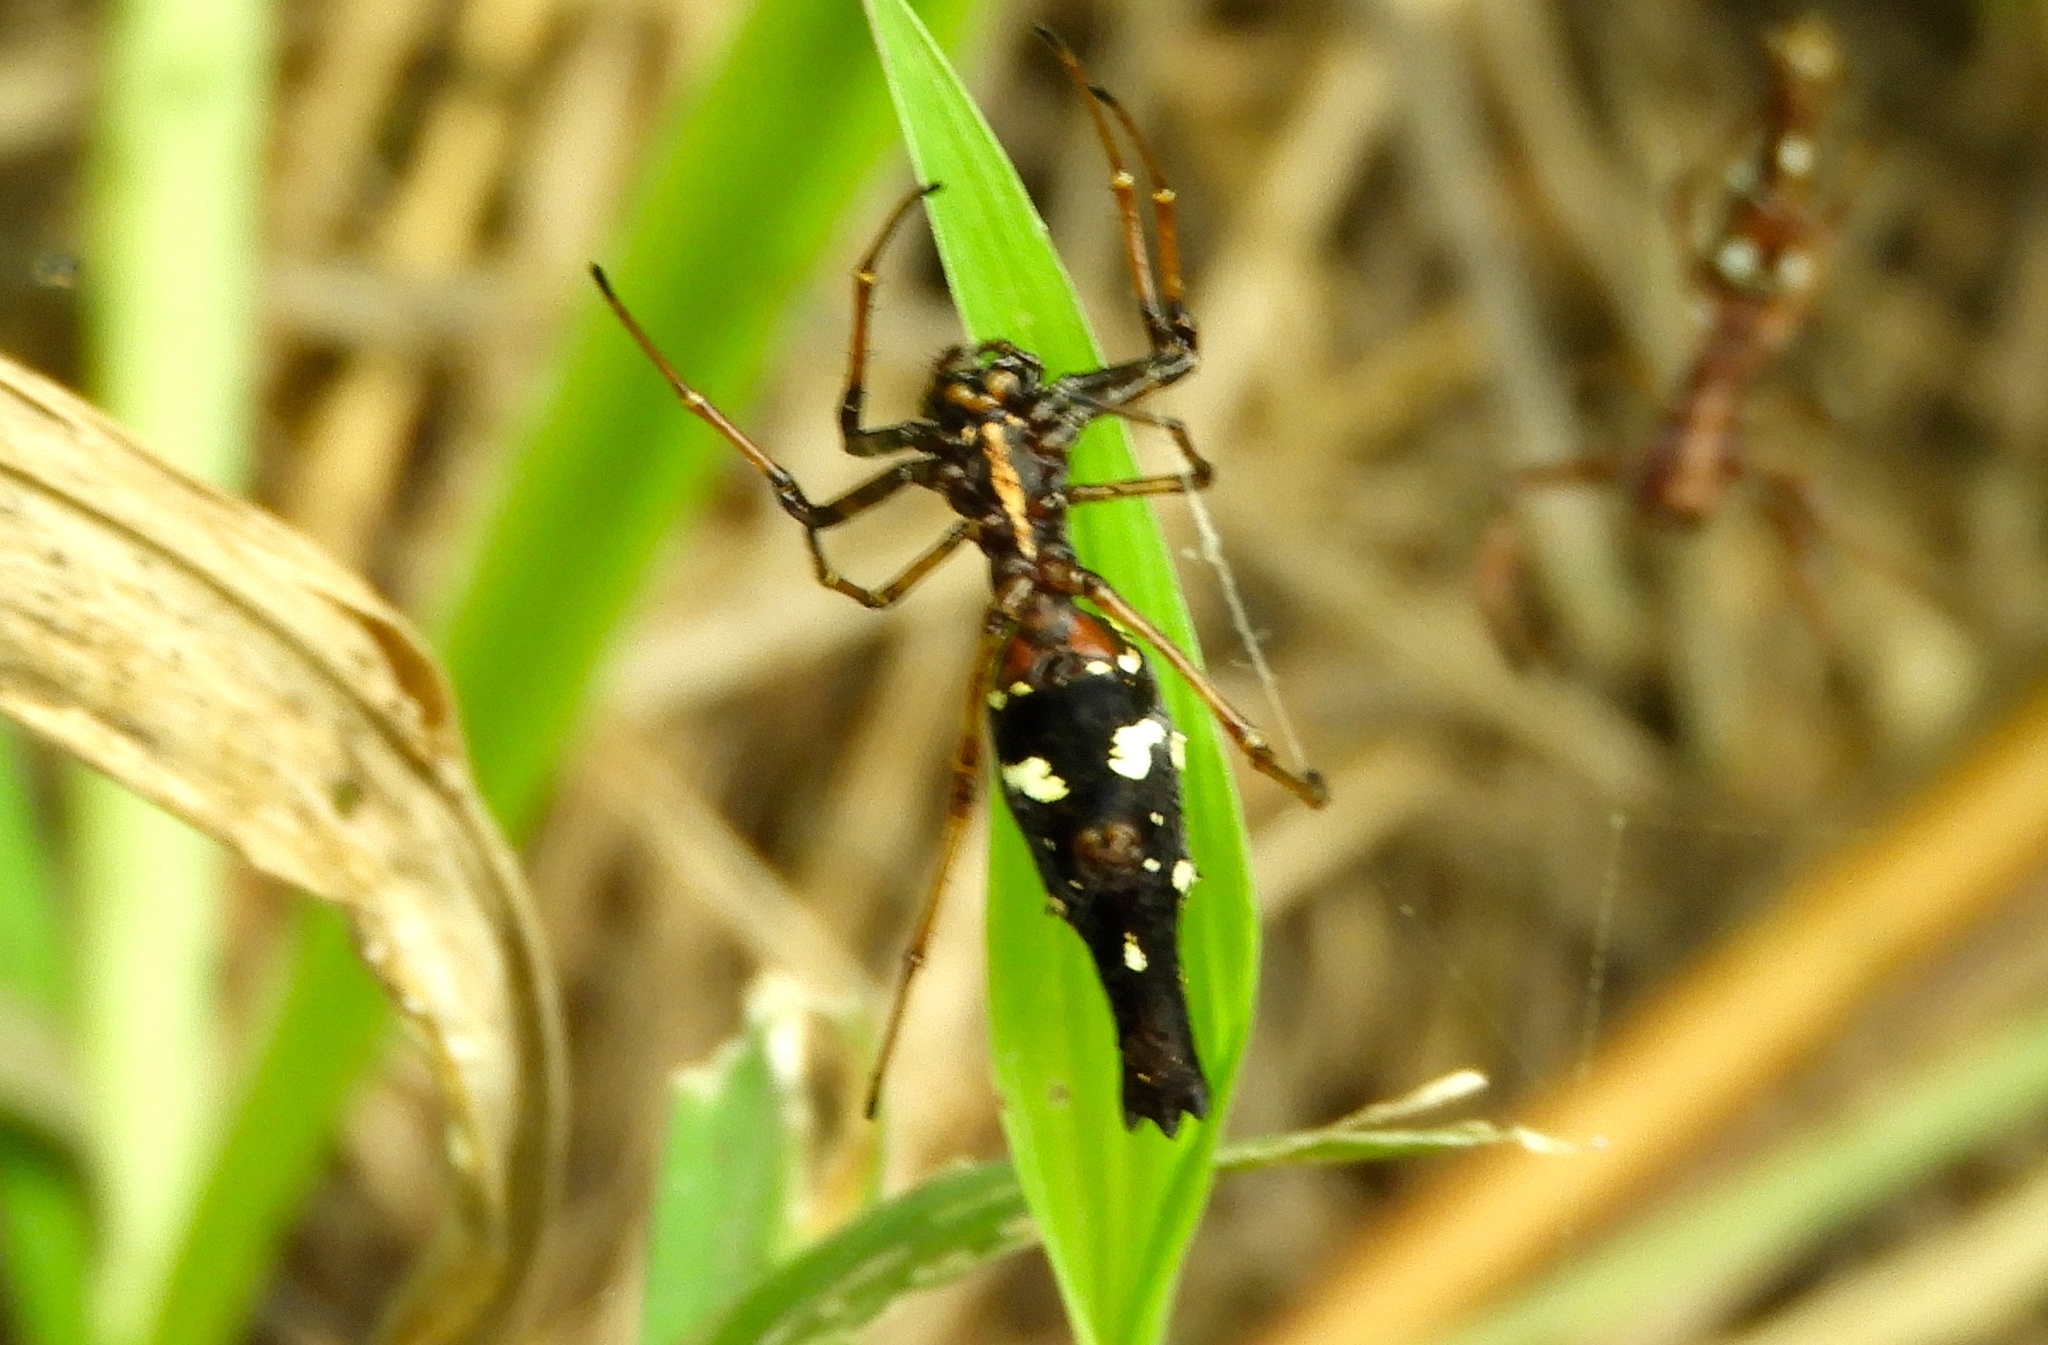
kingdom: Animalia
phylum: Arthropoda
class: Arachnida
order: Araneae
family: Araneidae
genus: Edricus
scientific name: Edricus productus
